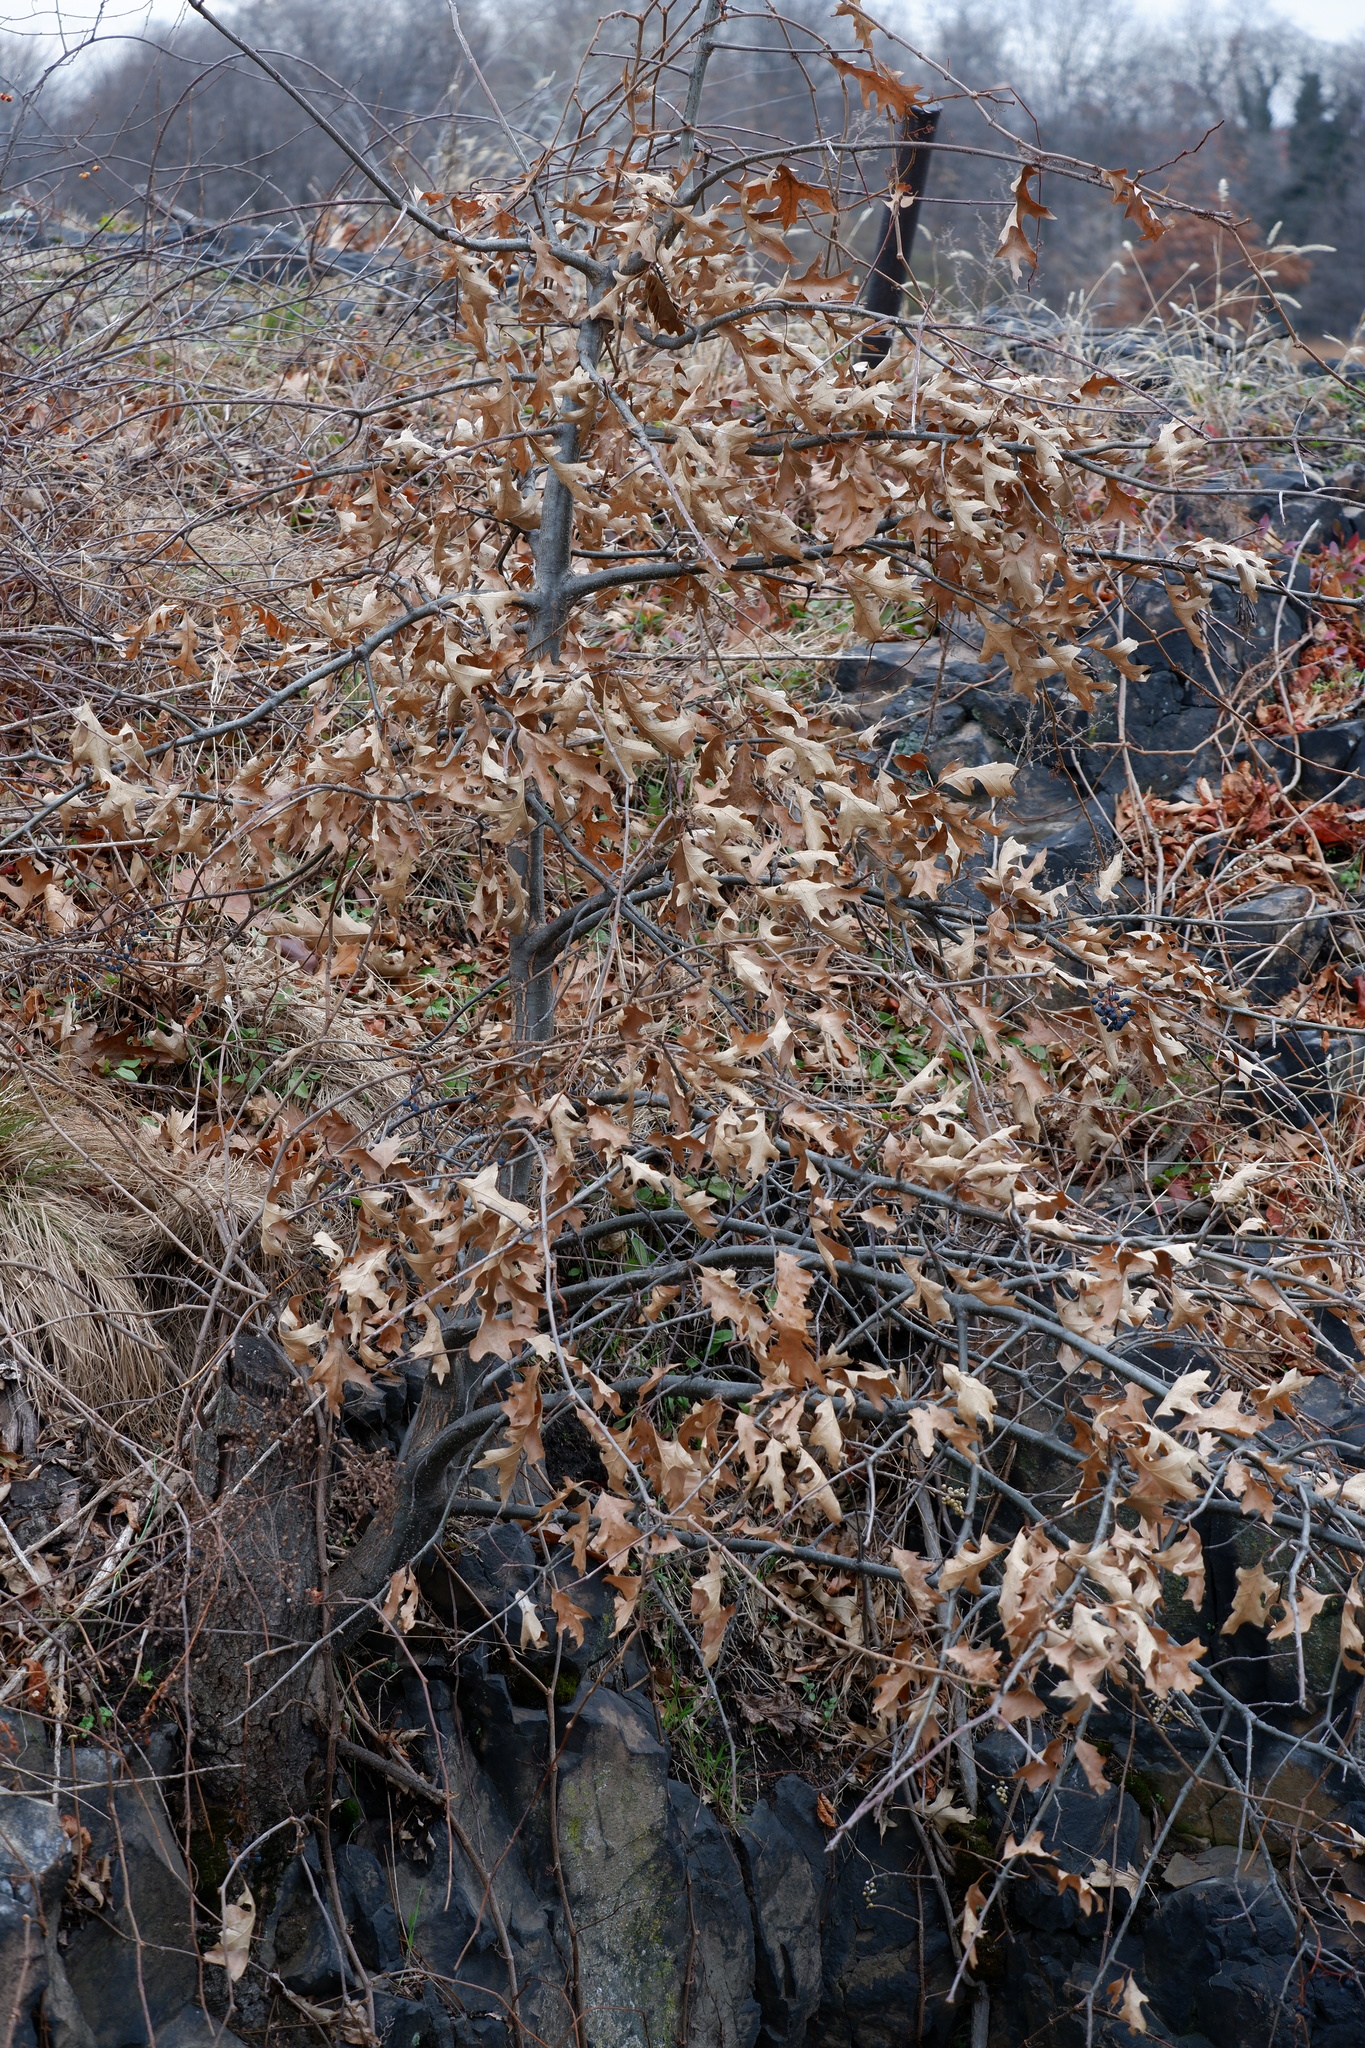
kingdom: Plantae
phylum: Tracheophyta
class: Magnoliopsida
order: Fagales
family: Fagaceae
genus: Quercus
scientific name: Quercus palustris
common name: Pin oak
